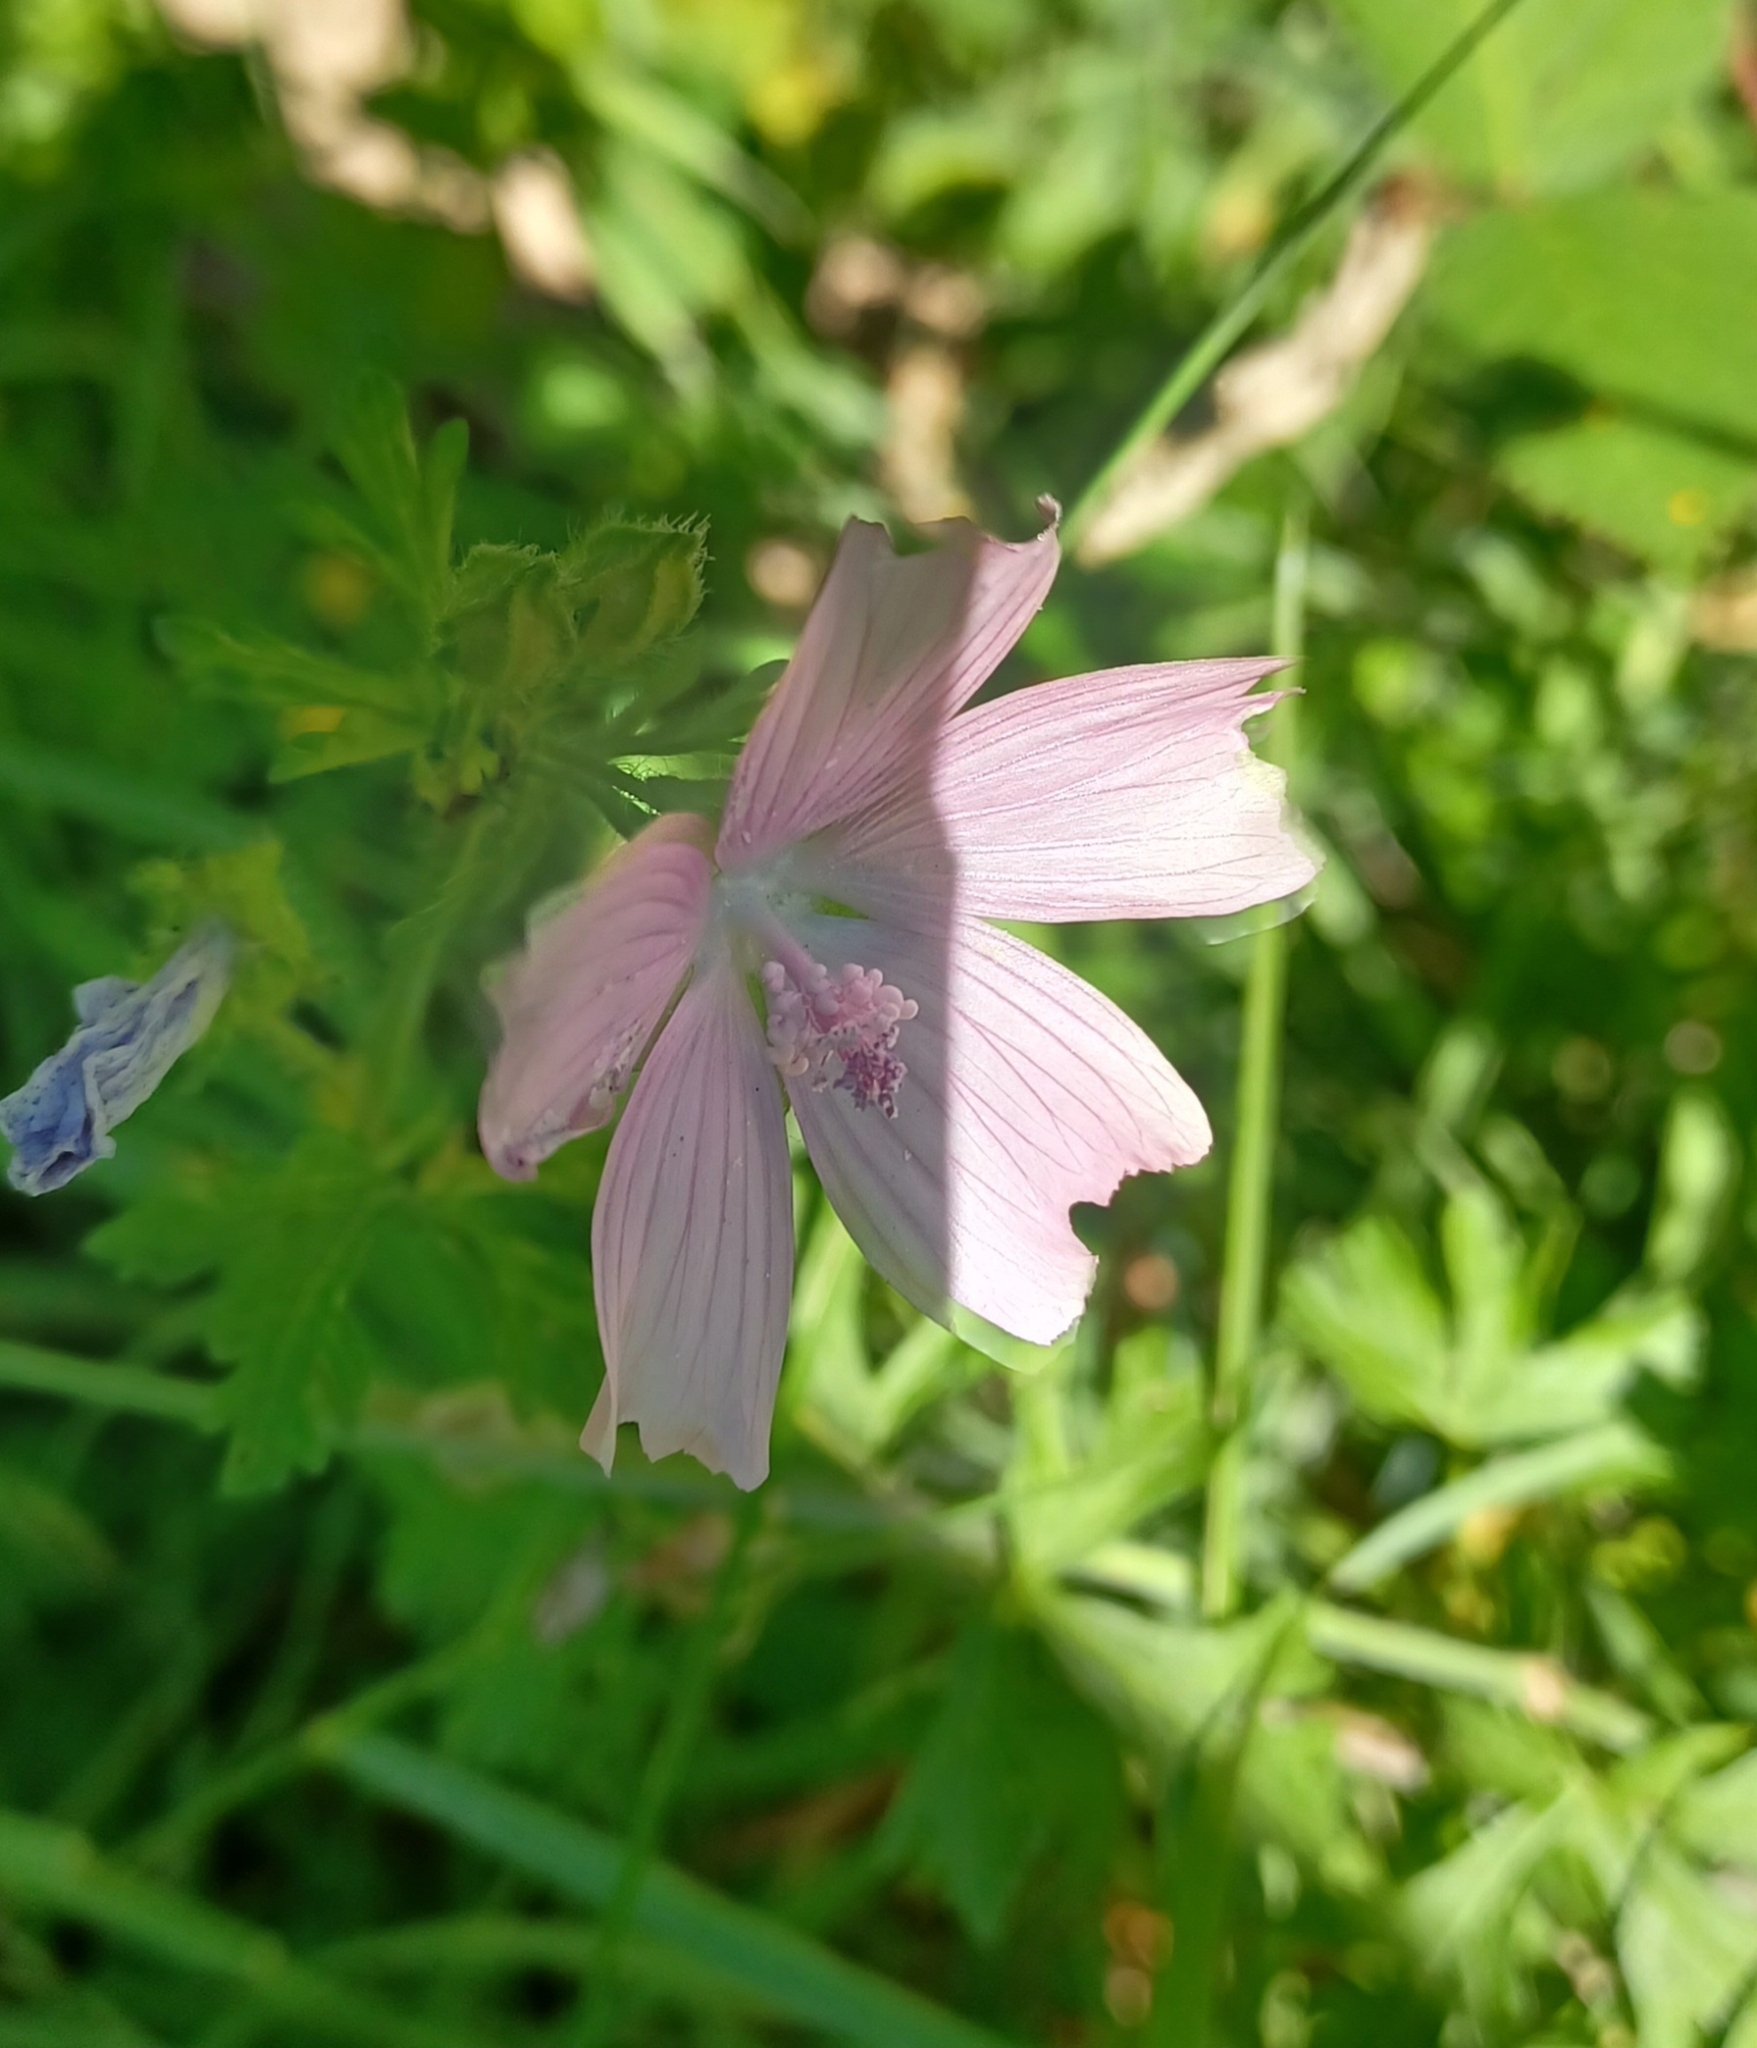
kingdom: Plantae
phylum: Tracheophyta
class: Magnoliopsida
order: Malvales
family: Malvaceae
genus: Malva
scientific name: Malva moschata
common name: Musk mallow
